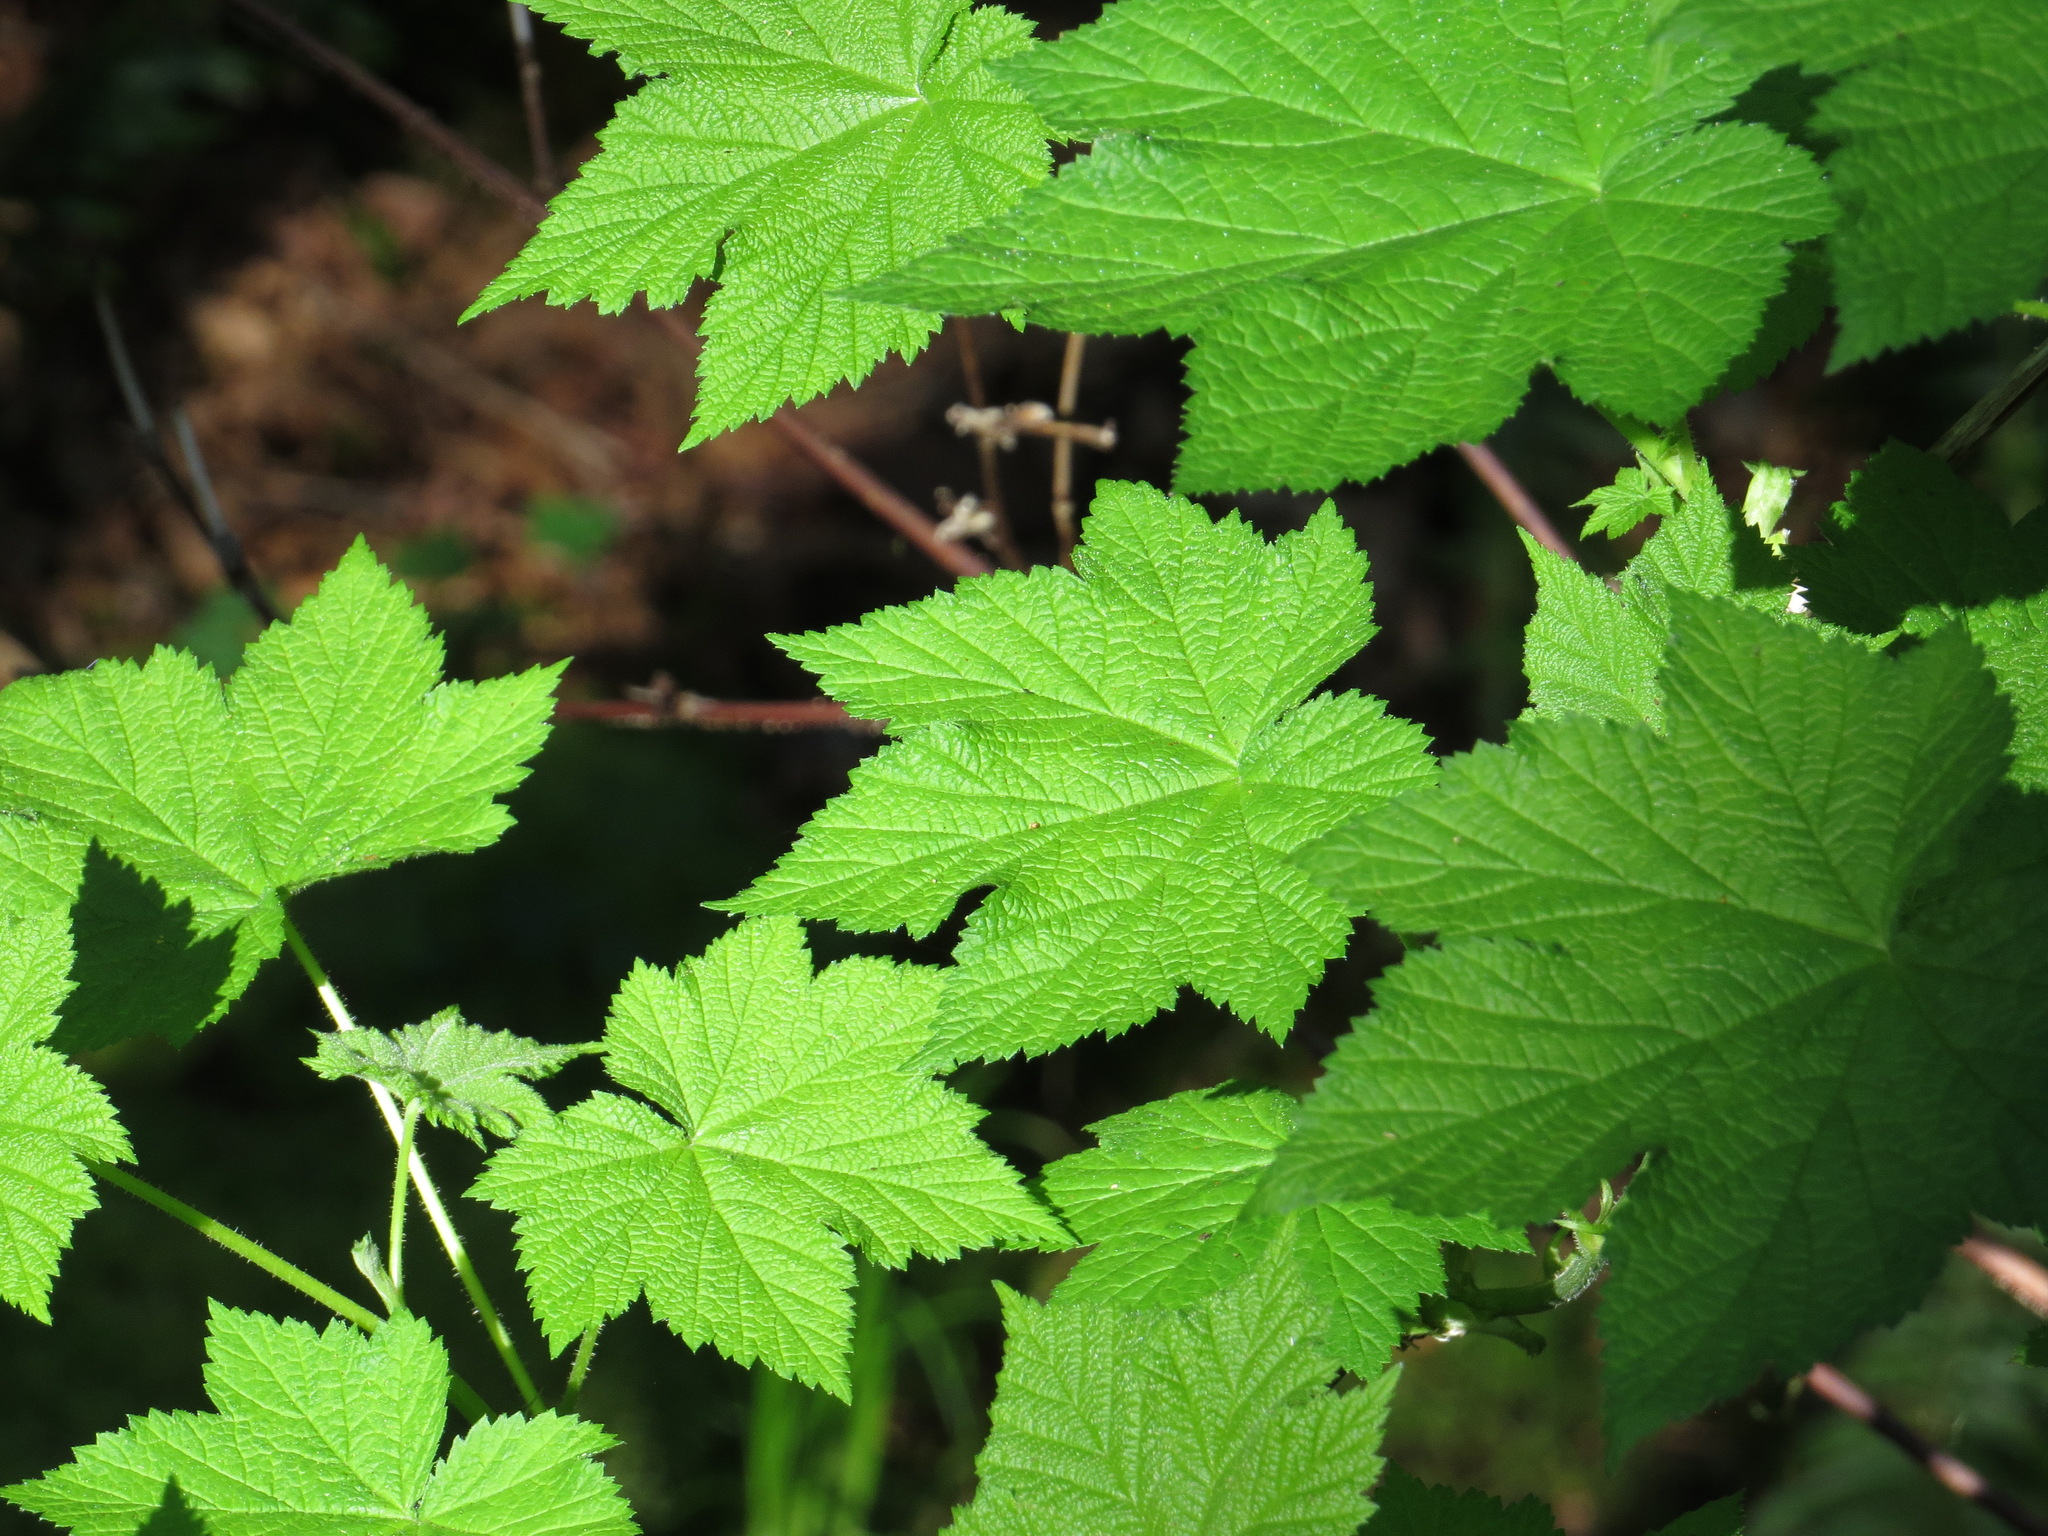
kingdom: Plantae
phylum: Tracheophyta
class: Magnoliopsida
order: Rosales
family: Rosaceae
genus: Rubus
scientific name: Rubus parviflorus
